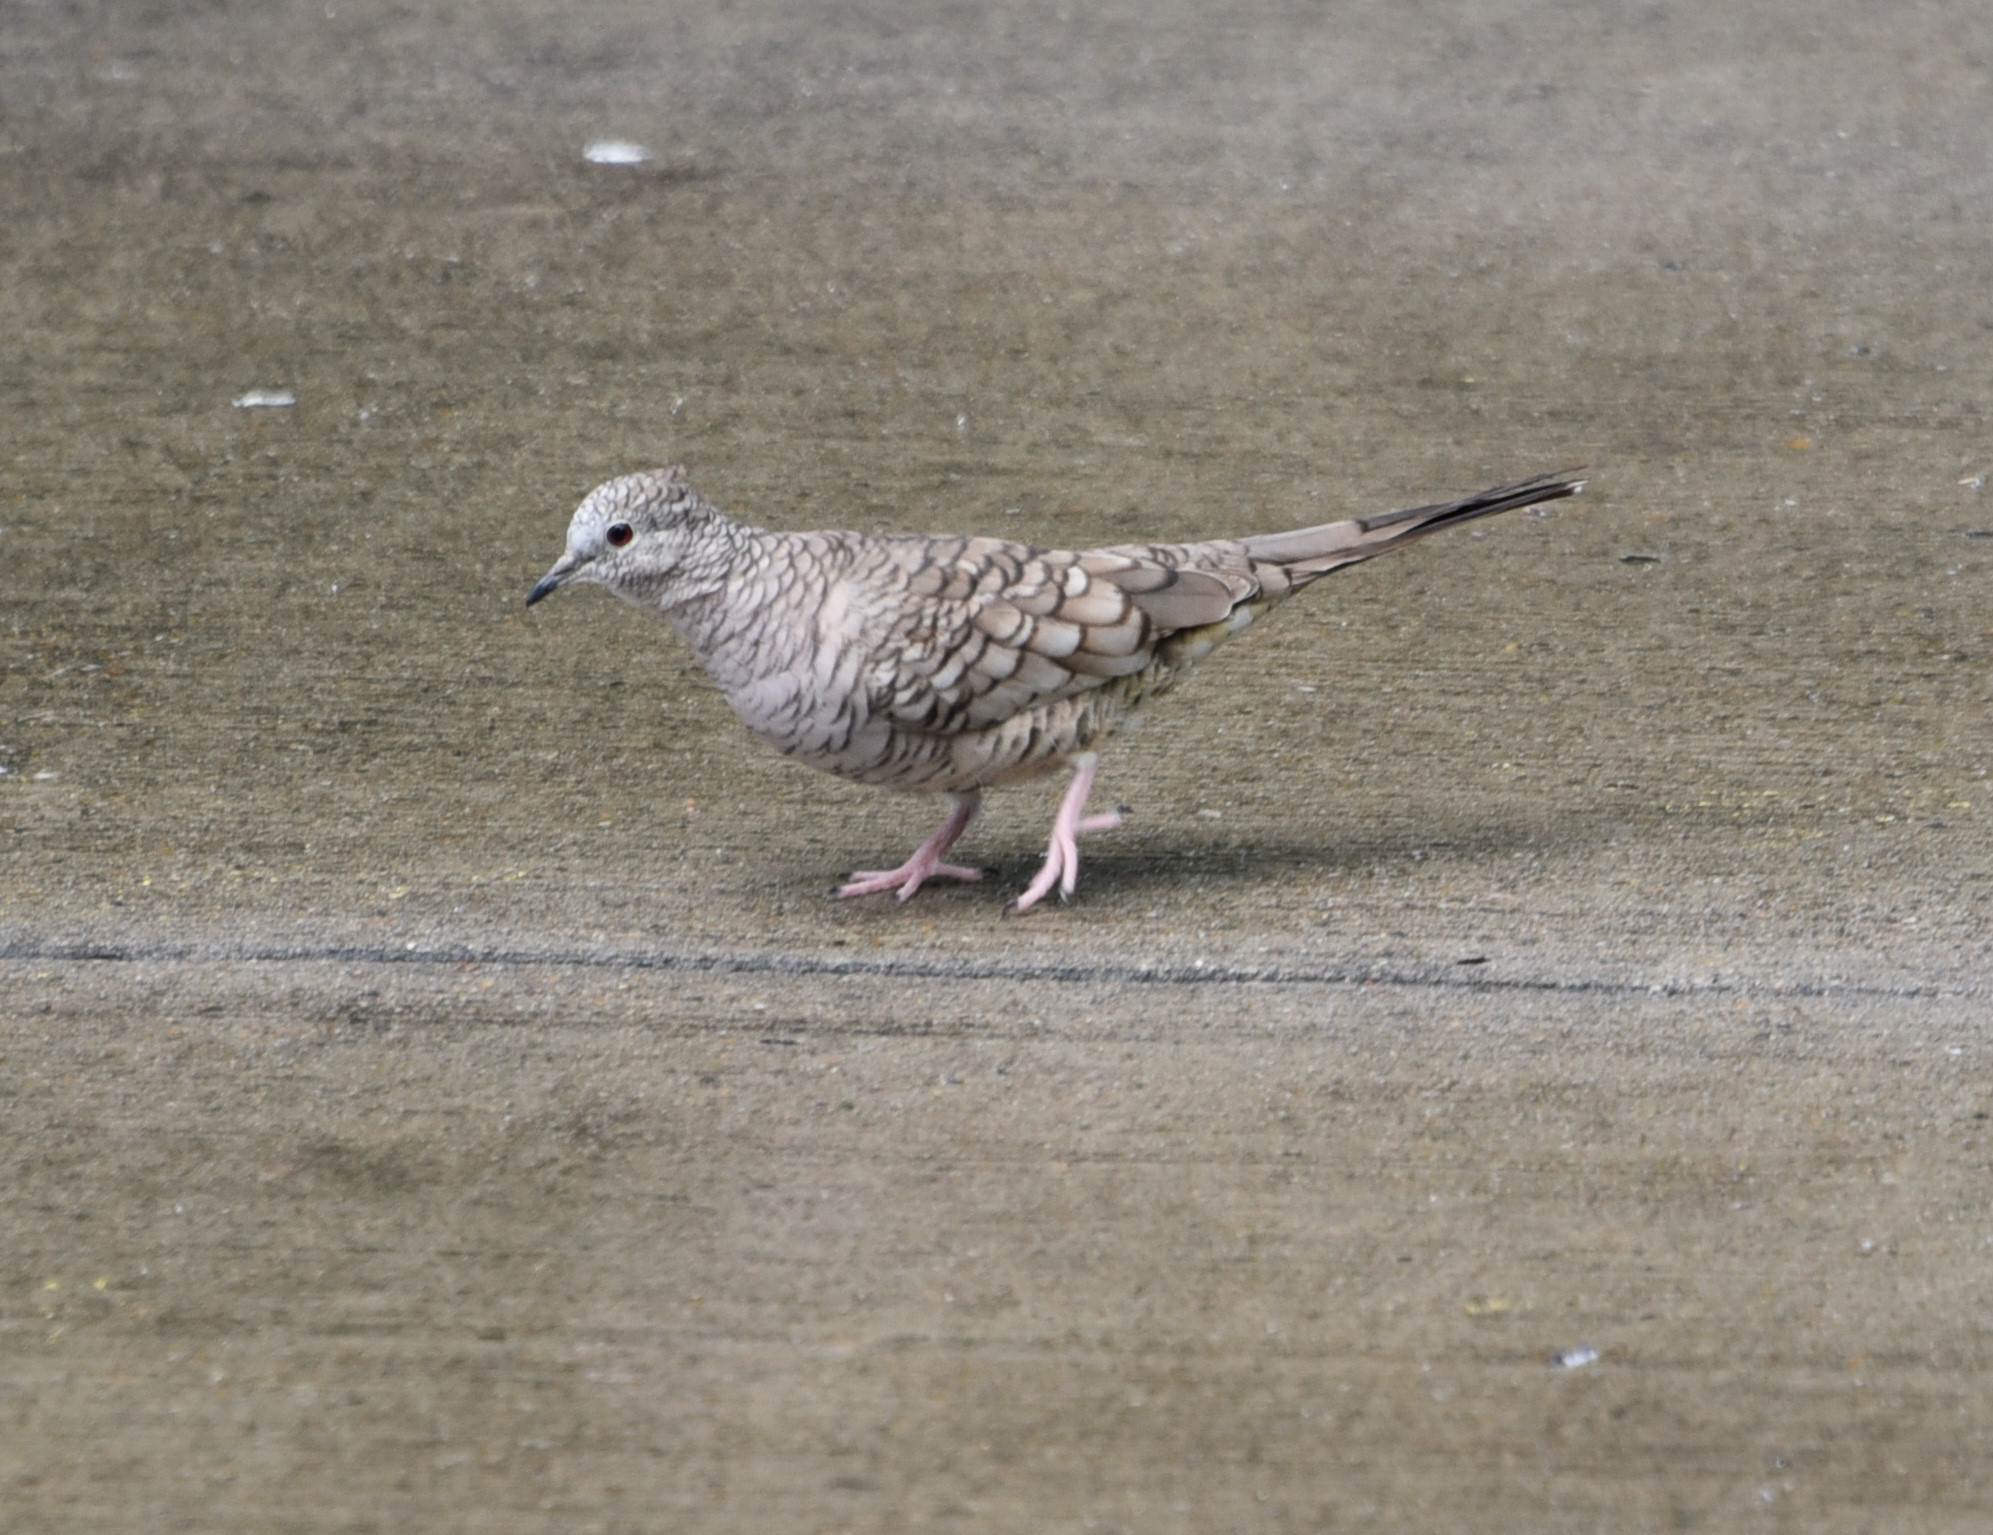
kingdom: Animalia
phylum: Chordata
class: Aves
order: Columbiformes
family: Columbidae
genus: Columbina
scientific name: Columbina inca
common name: Inca dove
